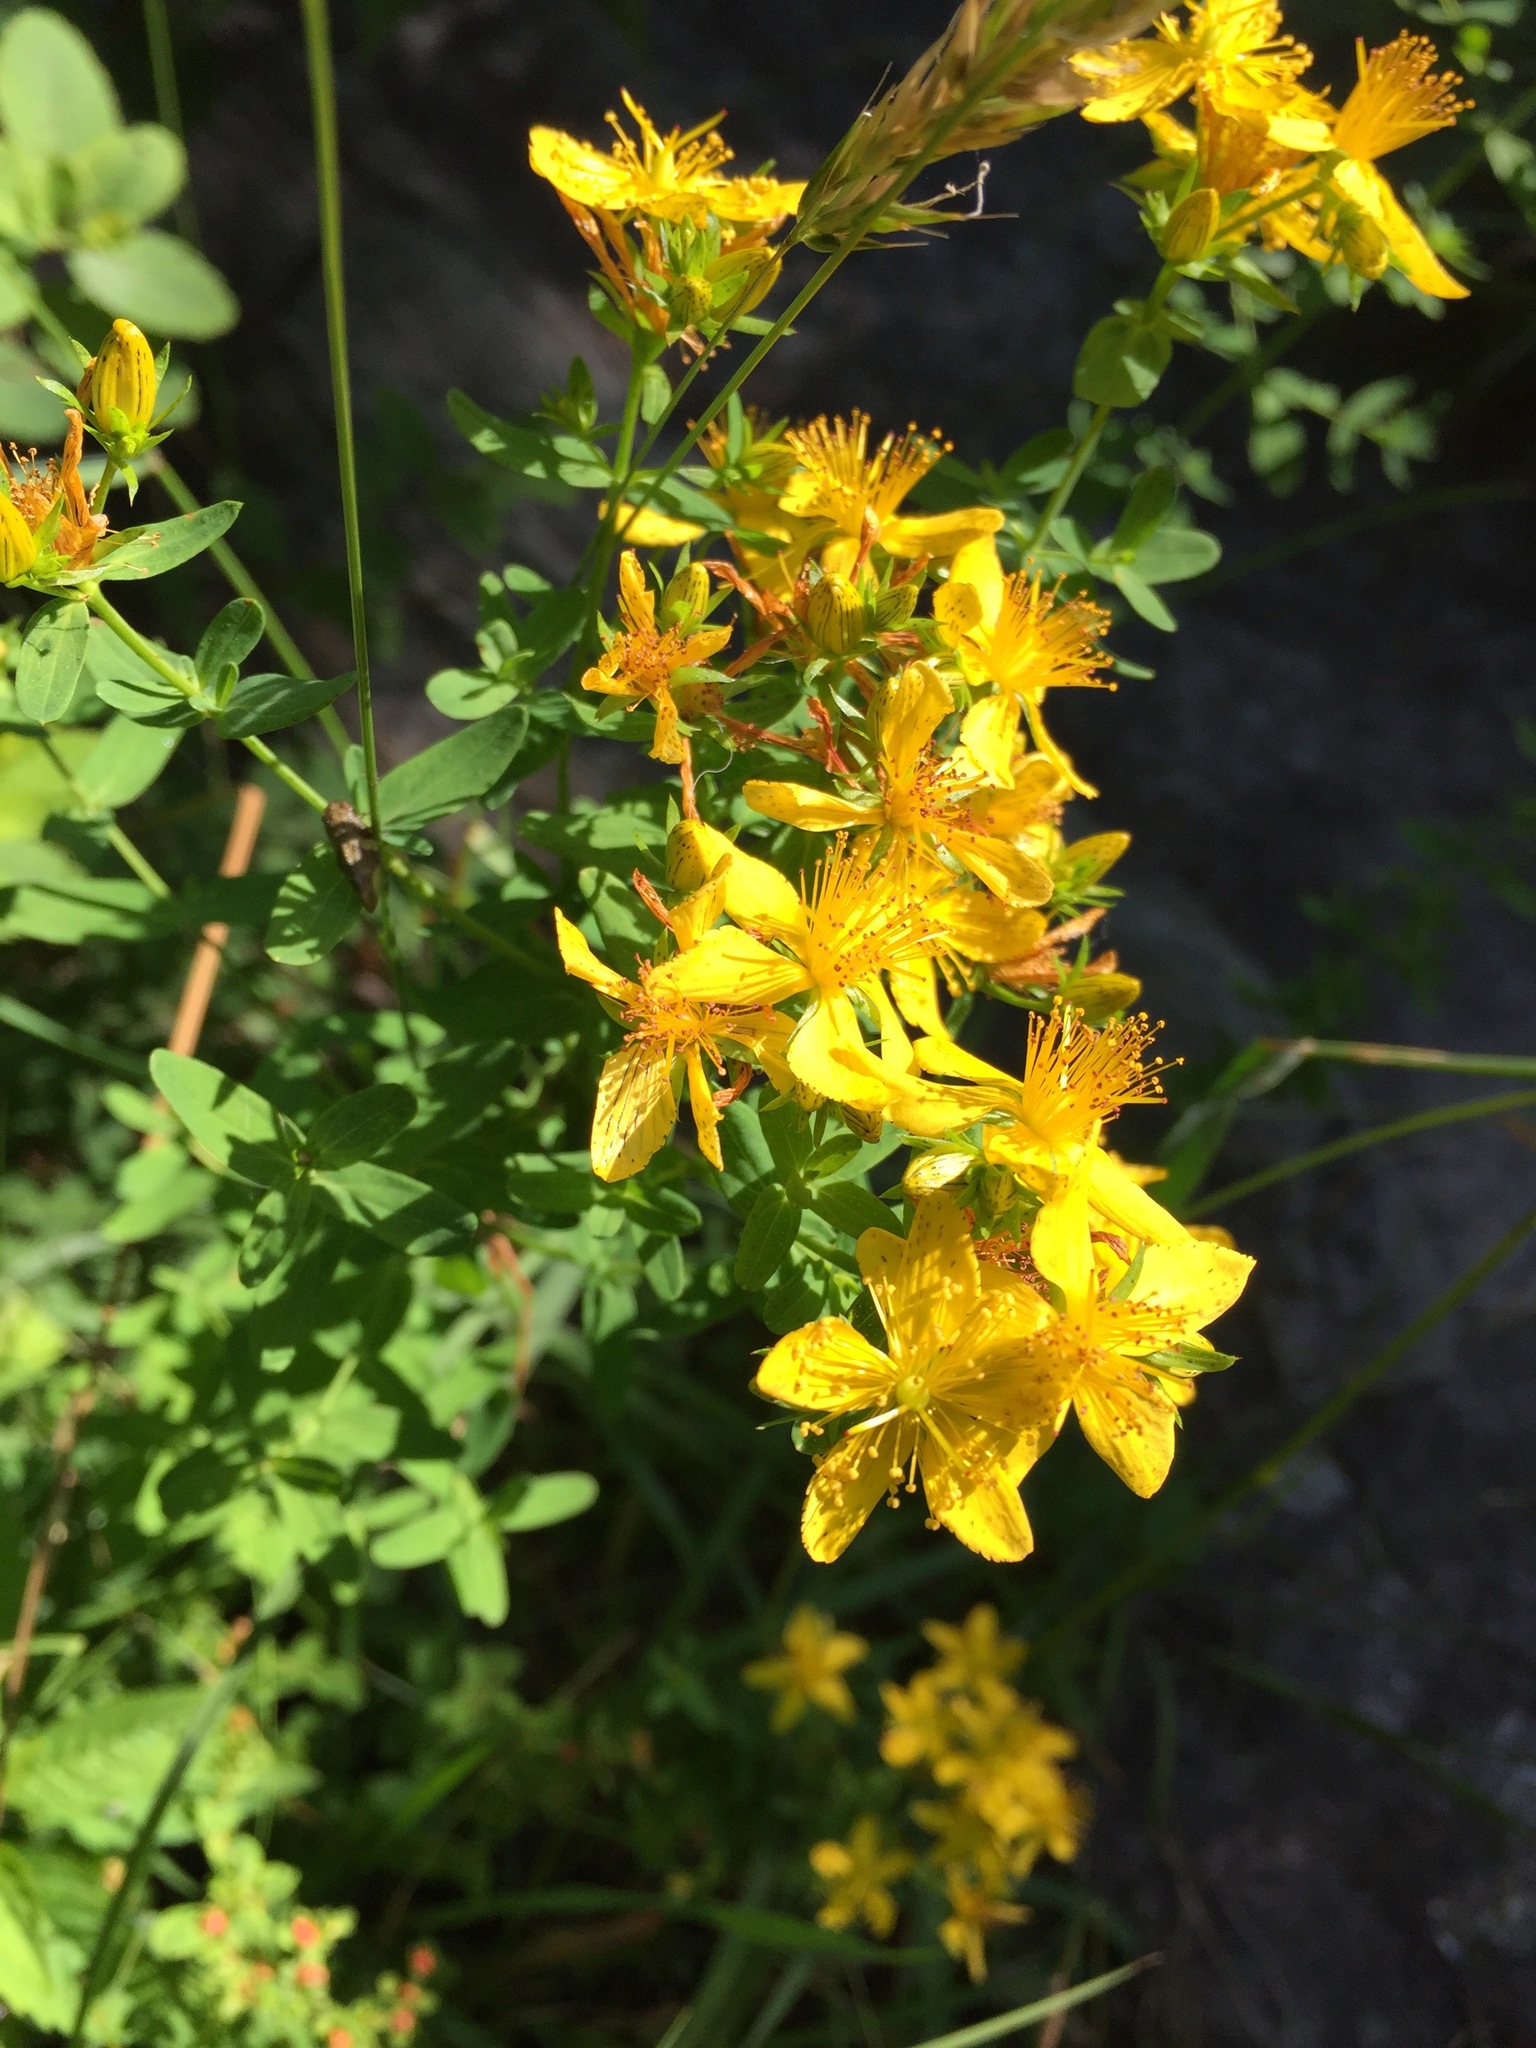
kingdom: Plantae
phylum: Tracheophyta
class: Magnoliopsida
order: Malpighiales
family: Hypericaceae
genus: Hypericum
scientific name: Hypericum perforatum
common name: Common st. johnswort
